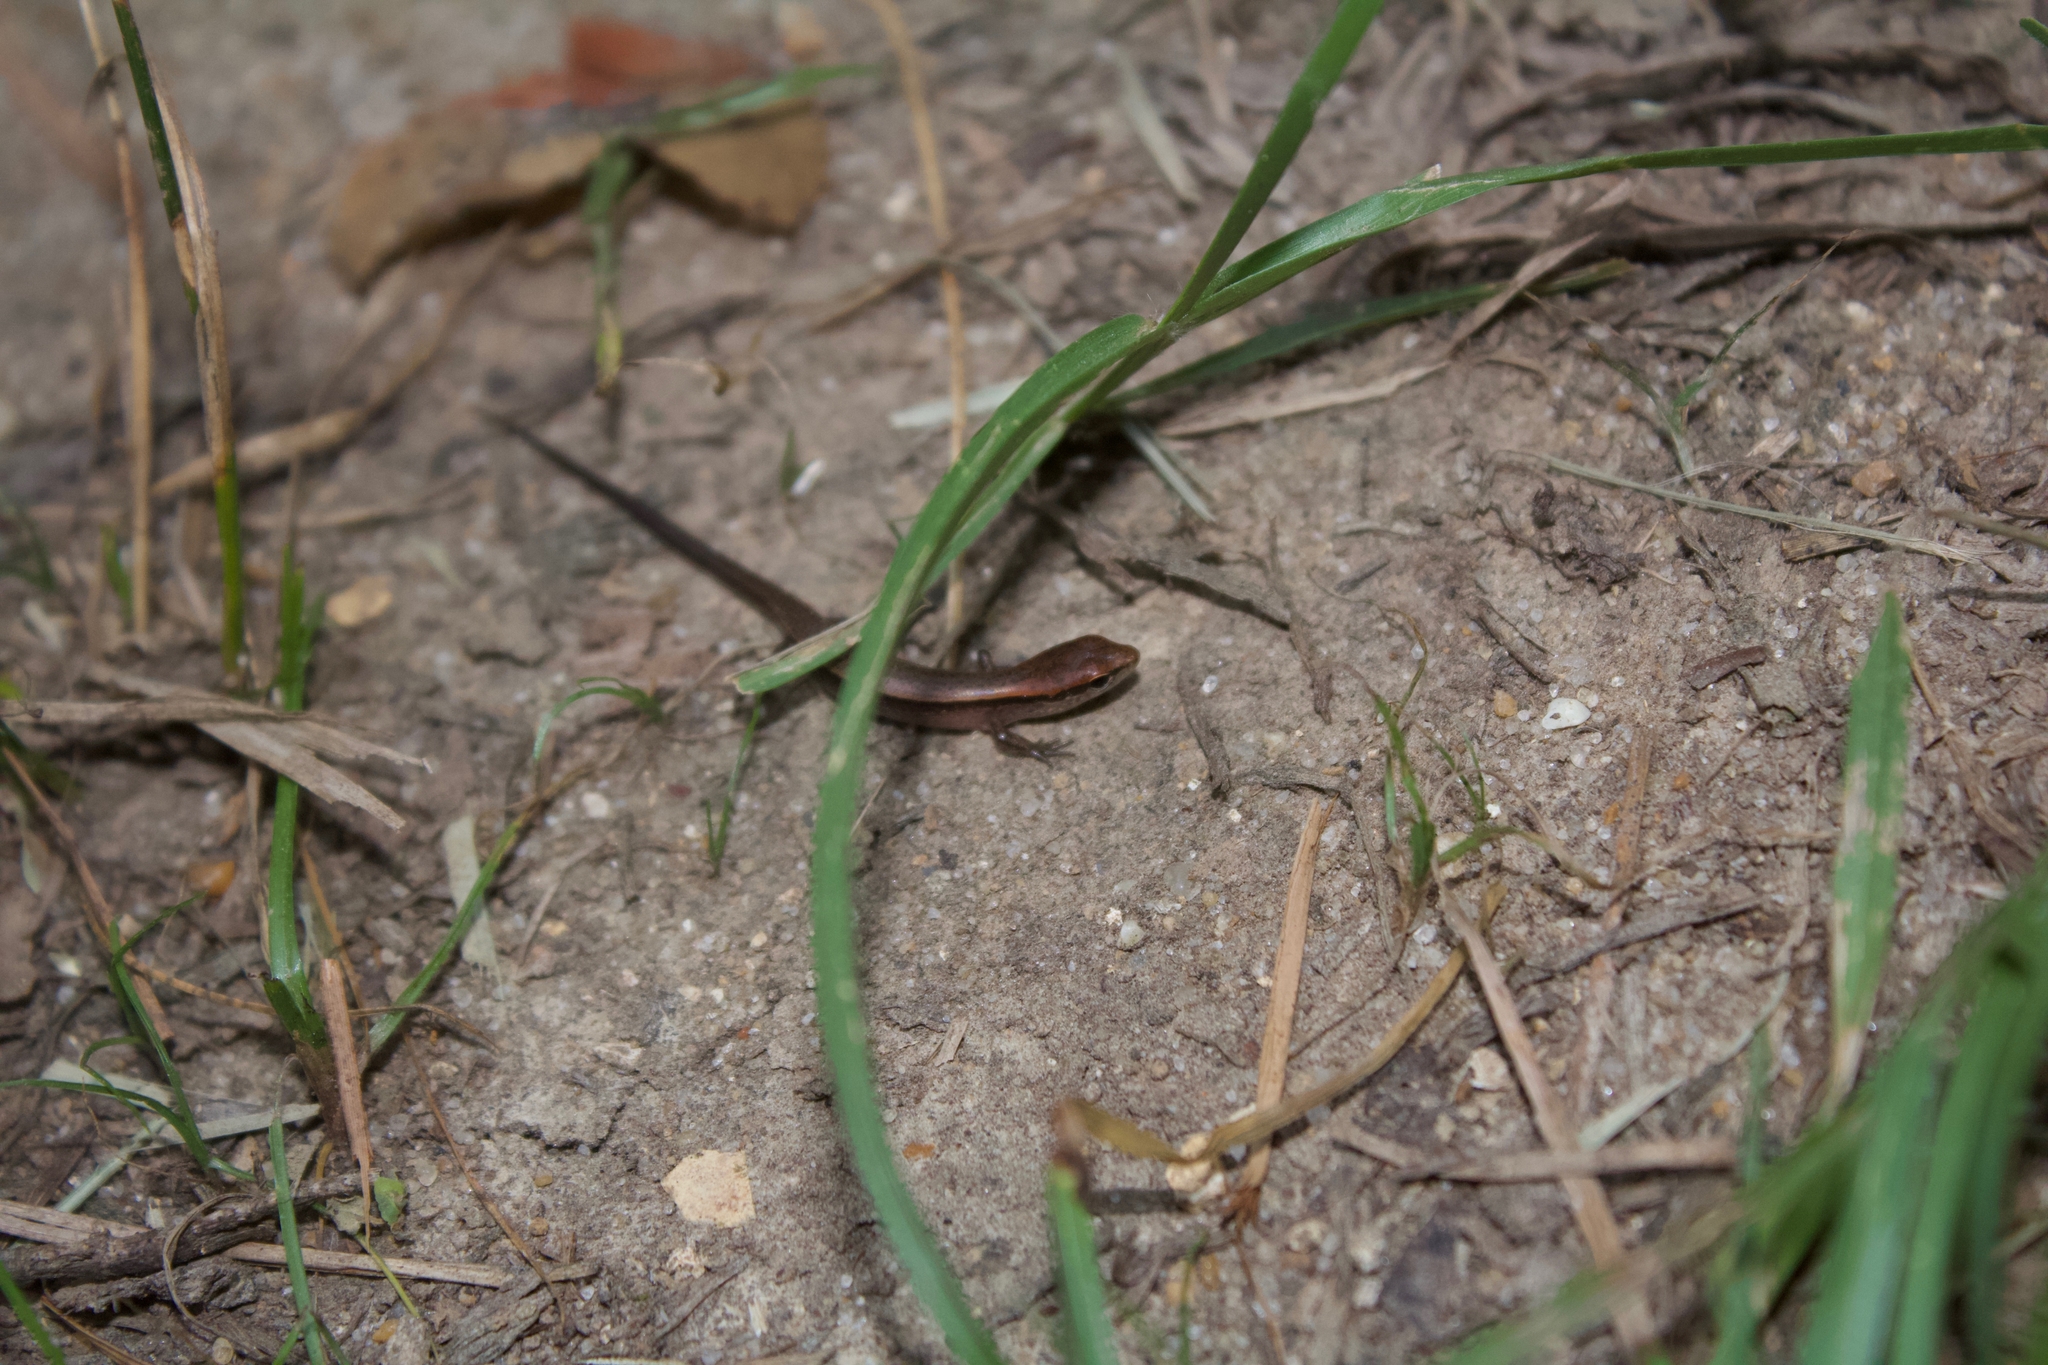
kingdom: Animalia
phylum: Chordata
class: Squamata
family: Scincidae
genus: Scincella
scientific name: Scincella lateralis
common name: Ground skink
